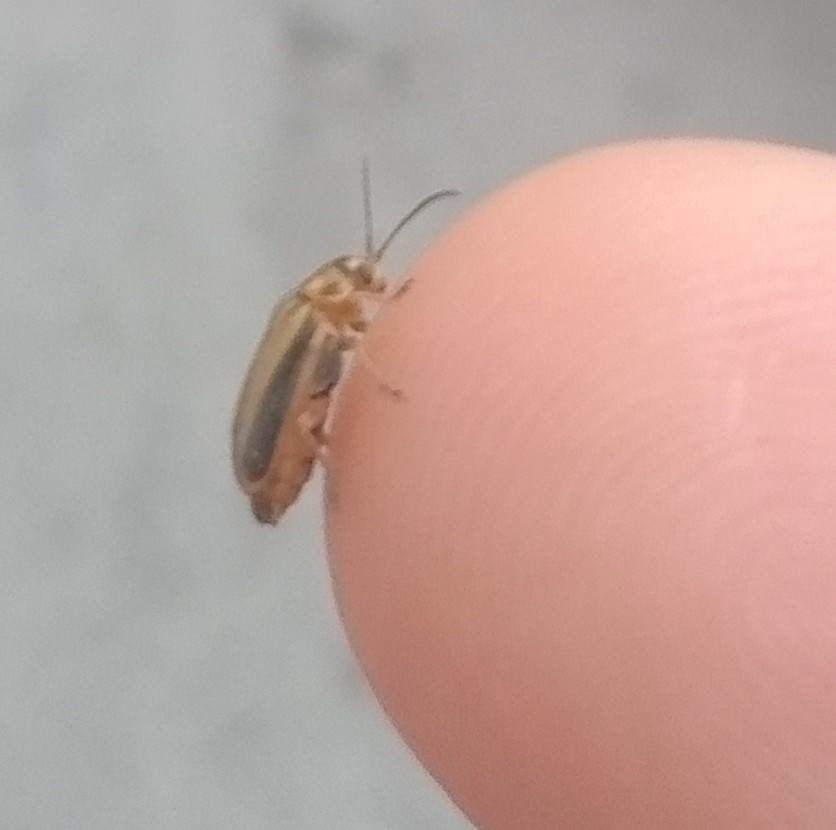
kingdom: Animalia
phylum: Arthropoda
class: Insecta
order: Coleoptera
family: Chrysomelidae
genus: Xanthogaleruca
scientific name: Xanthogaleruca luteola
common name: Elm leaf beetle
